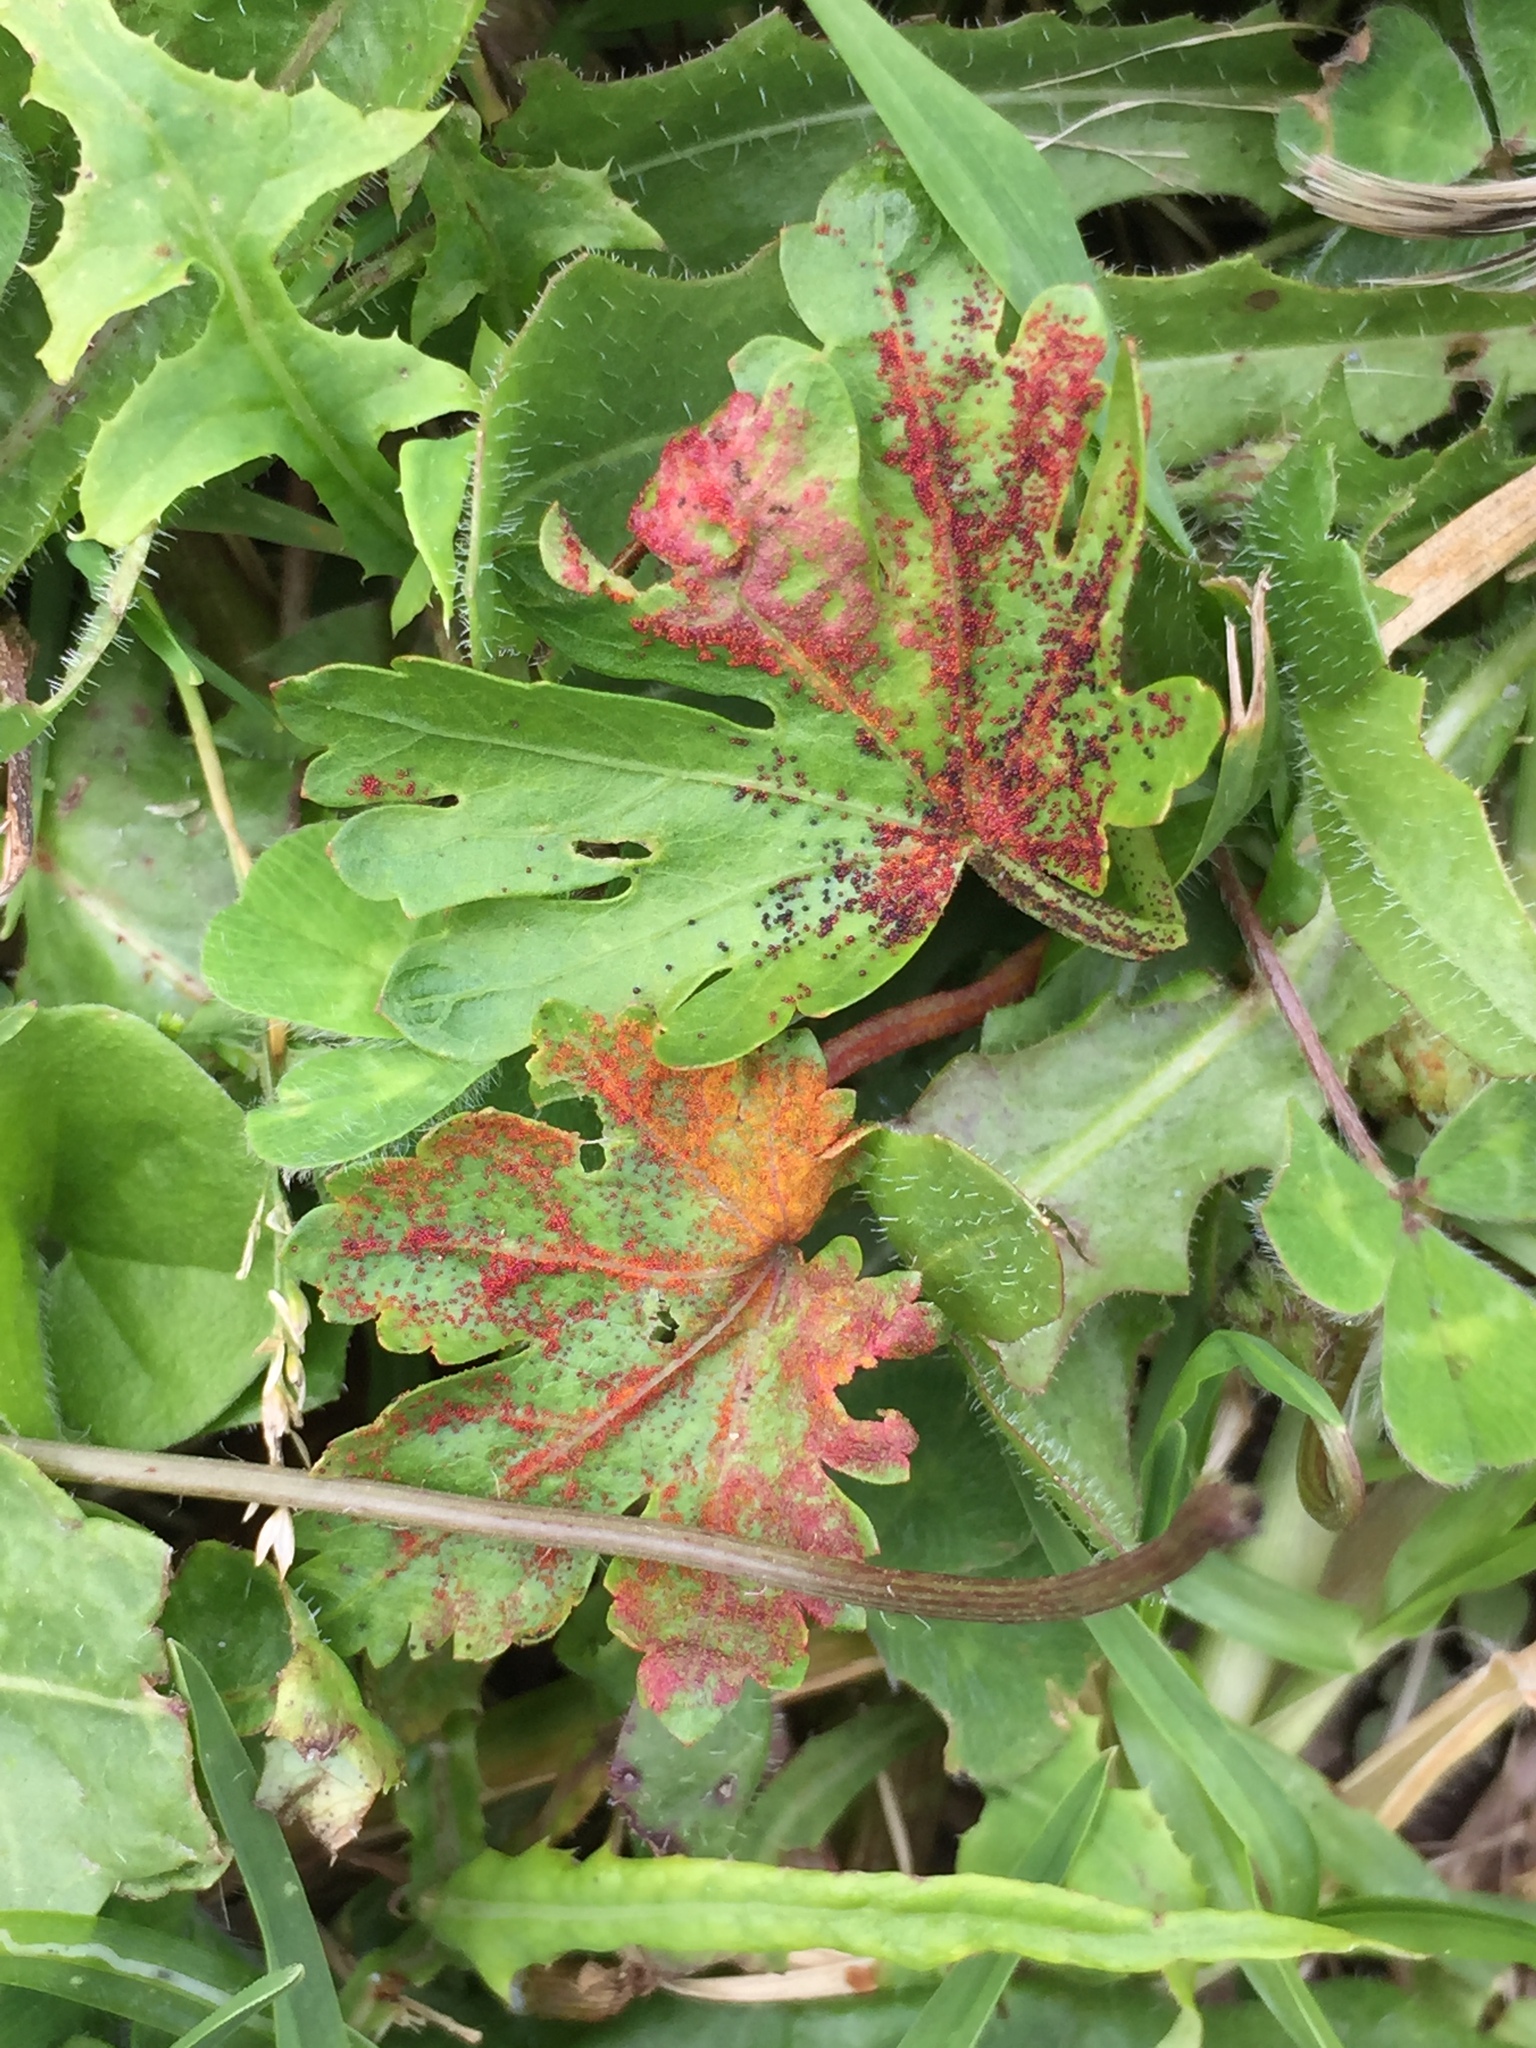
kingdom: Fungi
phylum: Chytridiomycota
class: Chytridiomycetes
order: Chytridiales
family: Synchytriaceae
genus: Synchytrium
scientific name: Synchytrium australe
